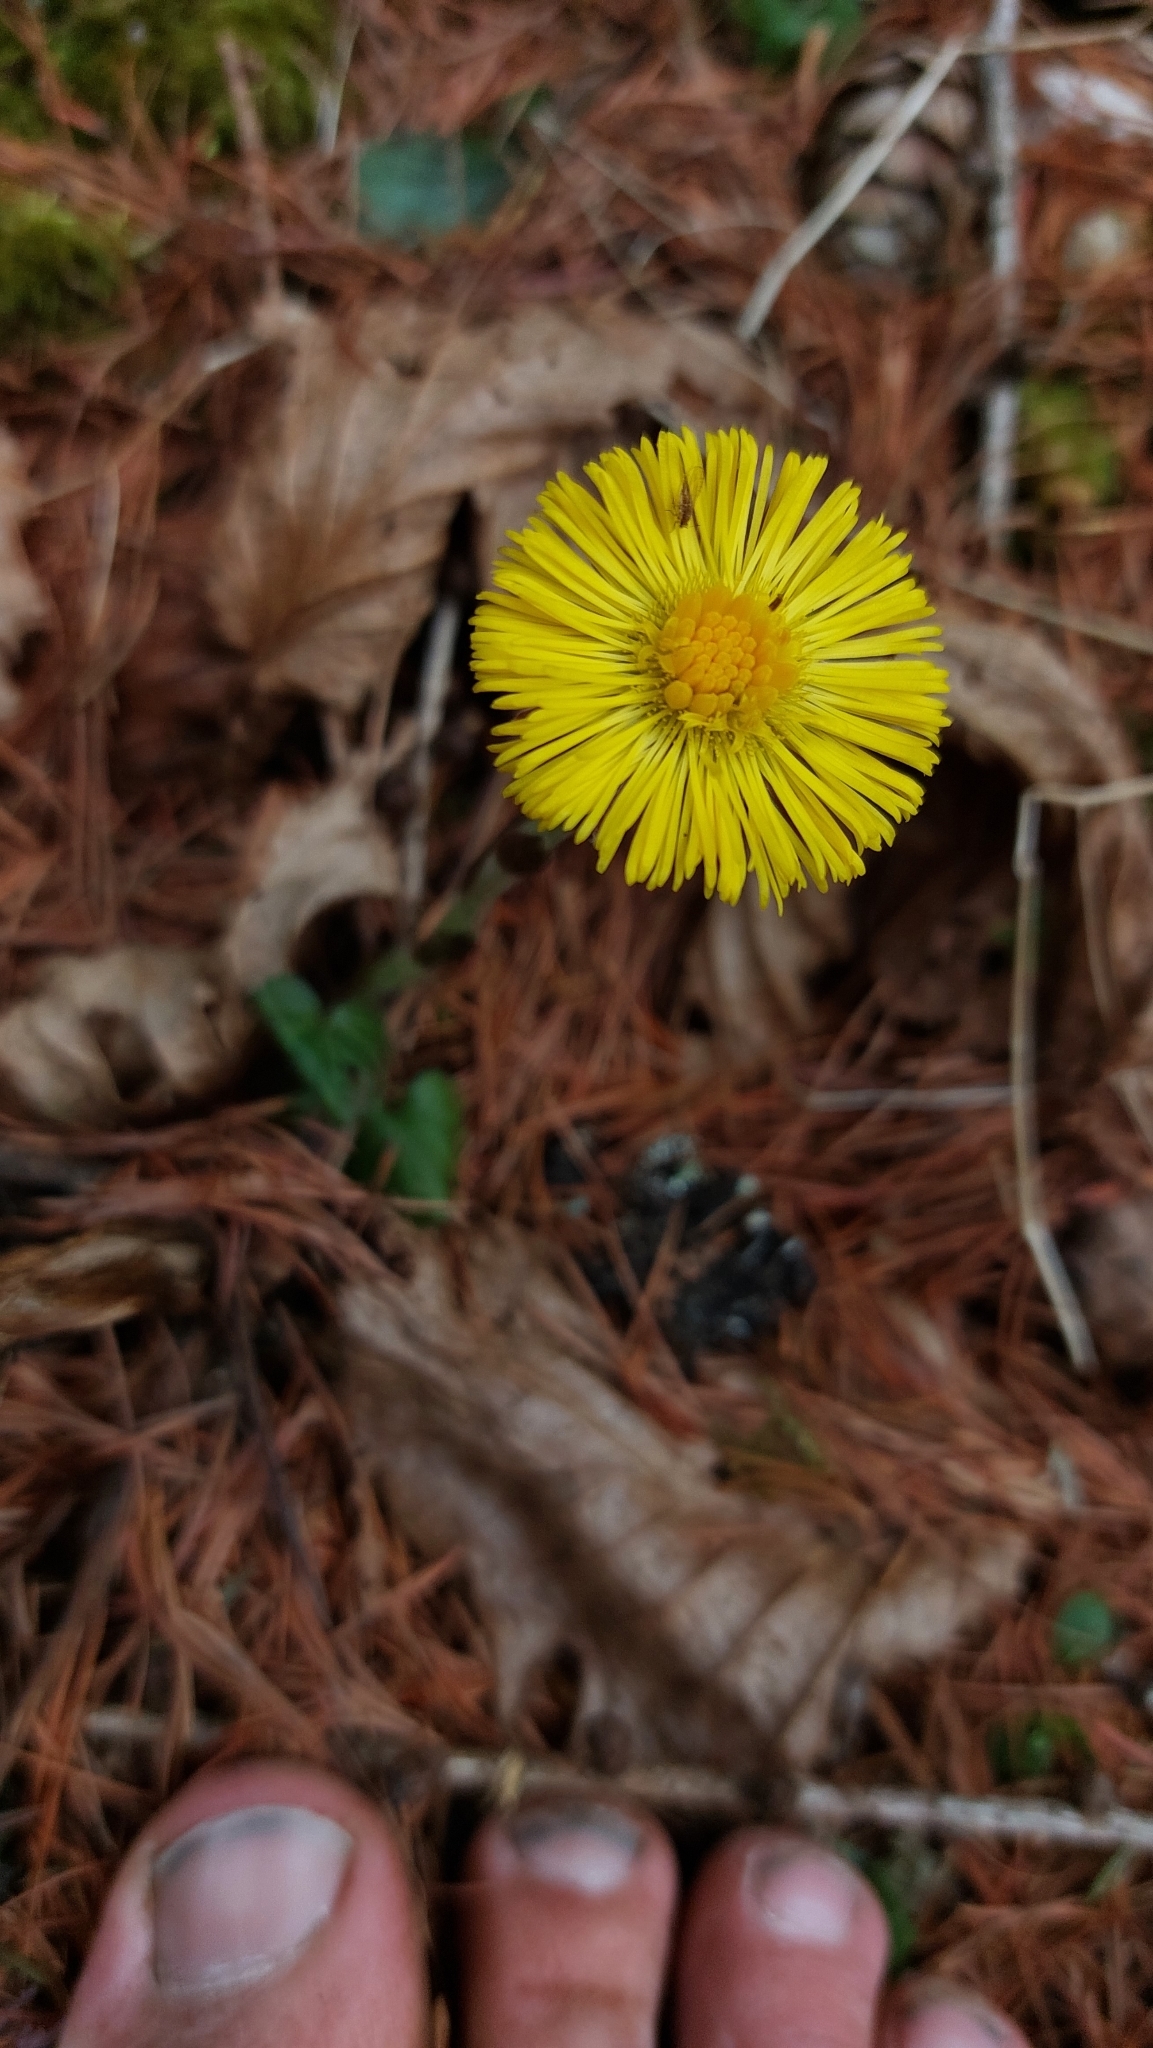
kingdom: Plantae
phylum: Tracheophyta
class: Magnoliopsida
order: Asterales
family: Asteraceae
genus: Tussilago
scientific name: Tussilago farfara
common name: Coltsfoot
